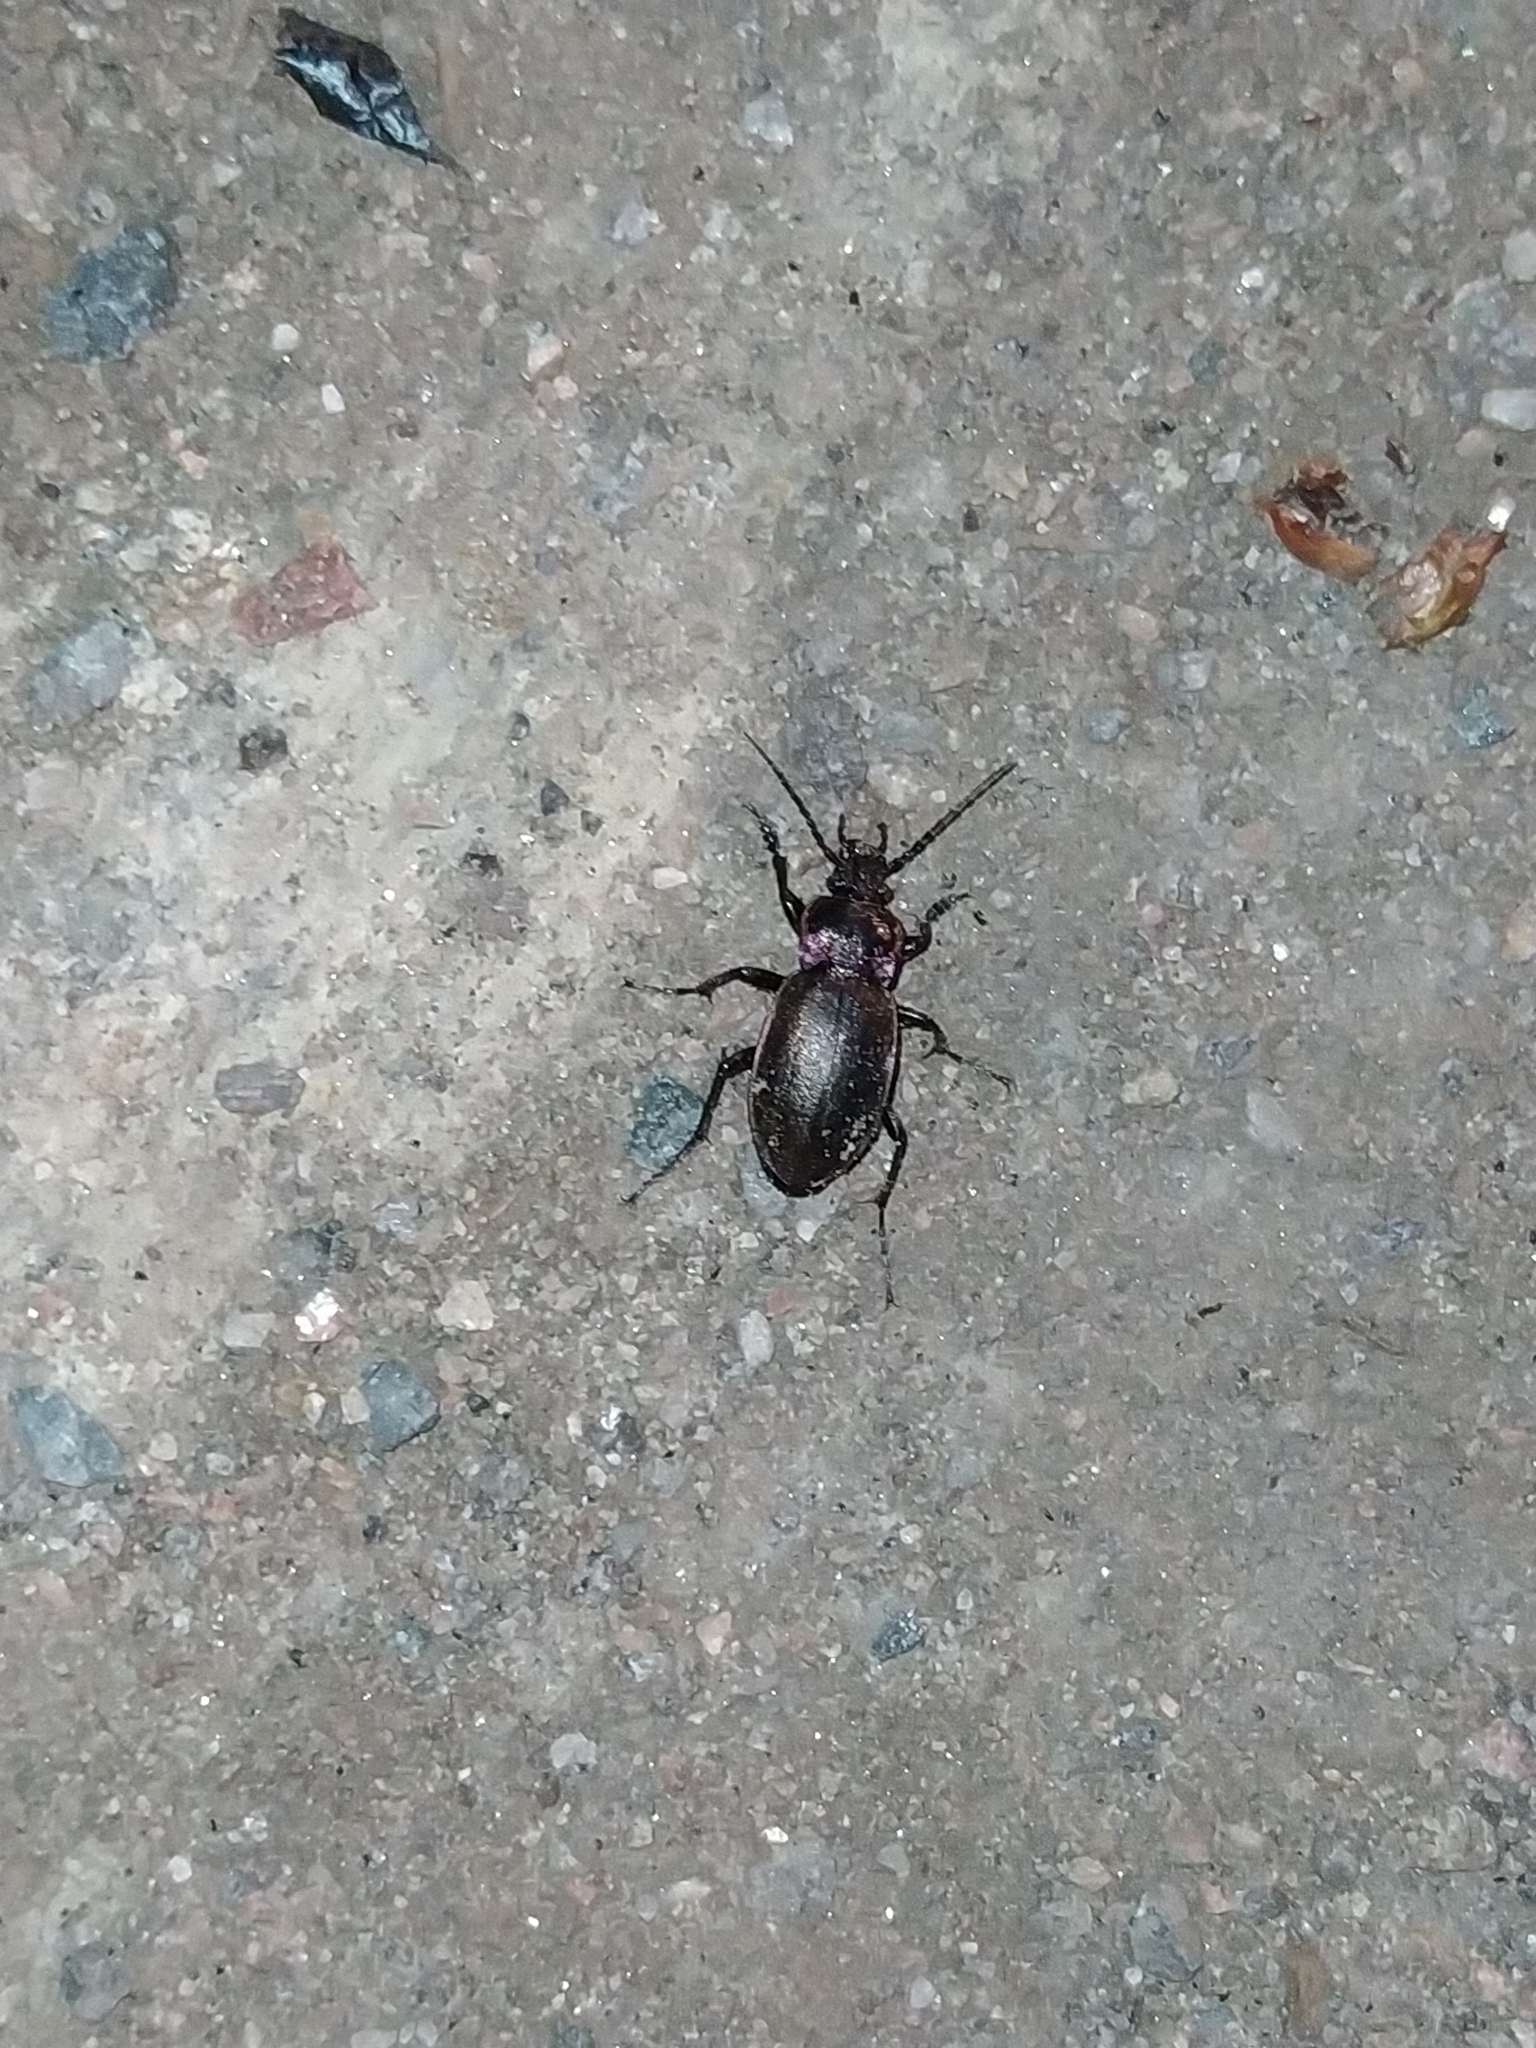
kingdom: Animalia
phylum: Arthropoda
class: Insecta
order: Coleoptera
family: Carabidae
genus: Carabus
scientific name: Carabus nemoralis
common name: European ground beetle
